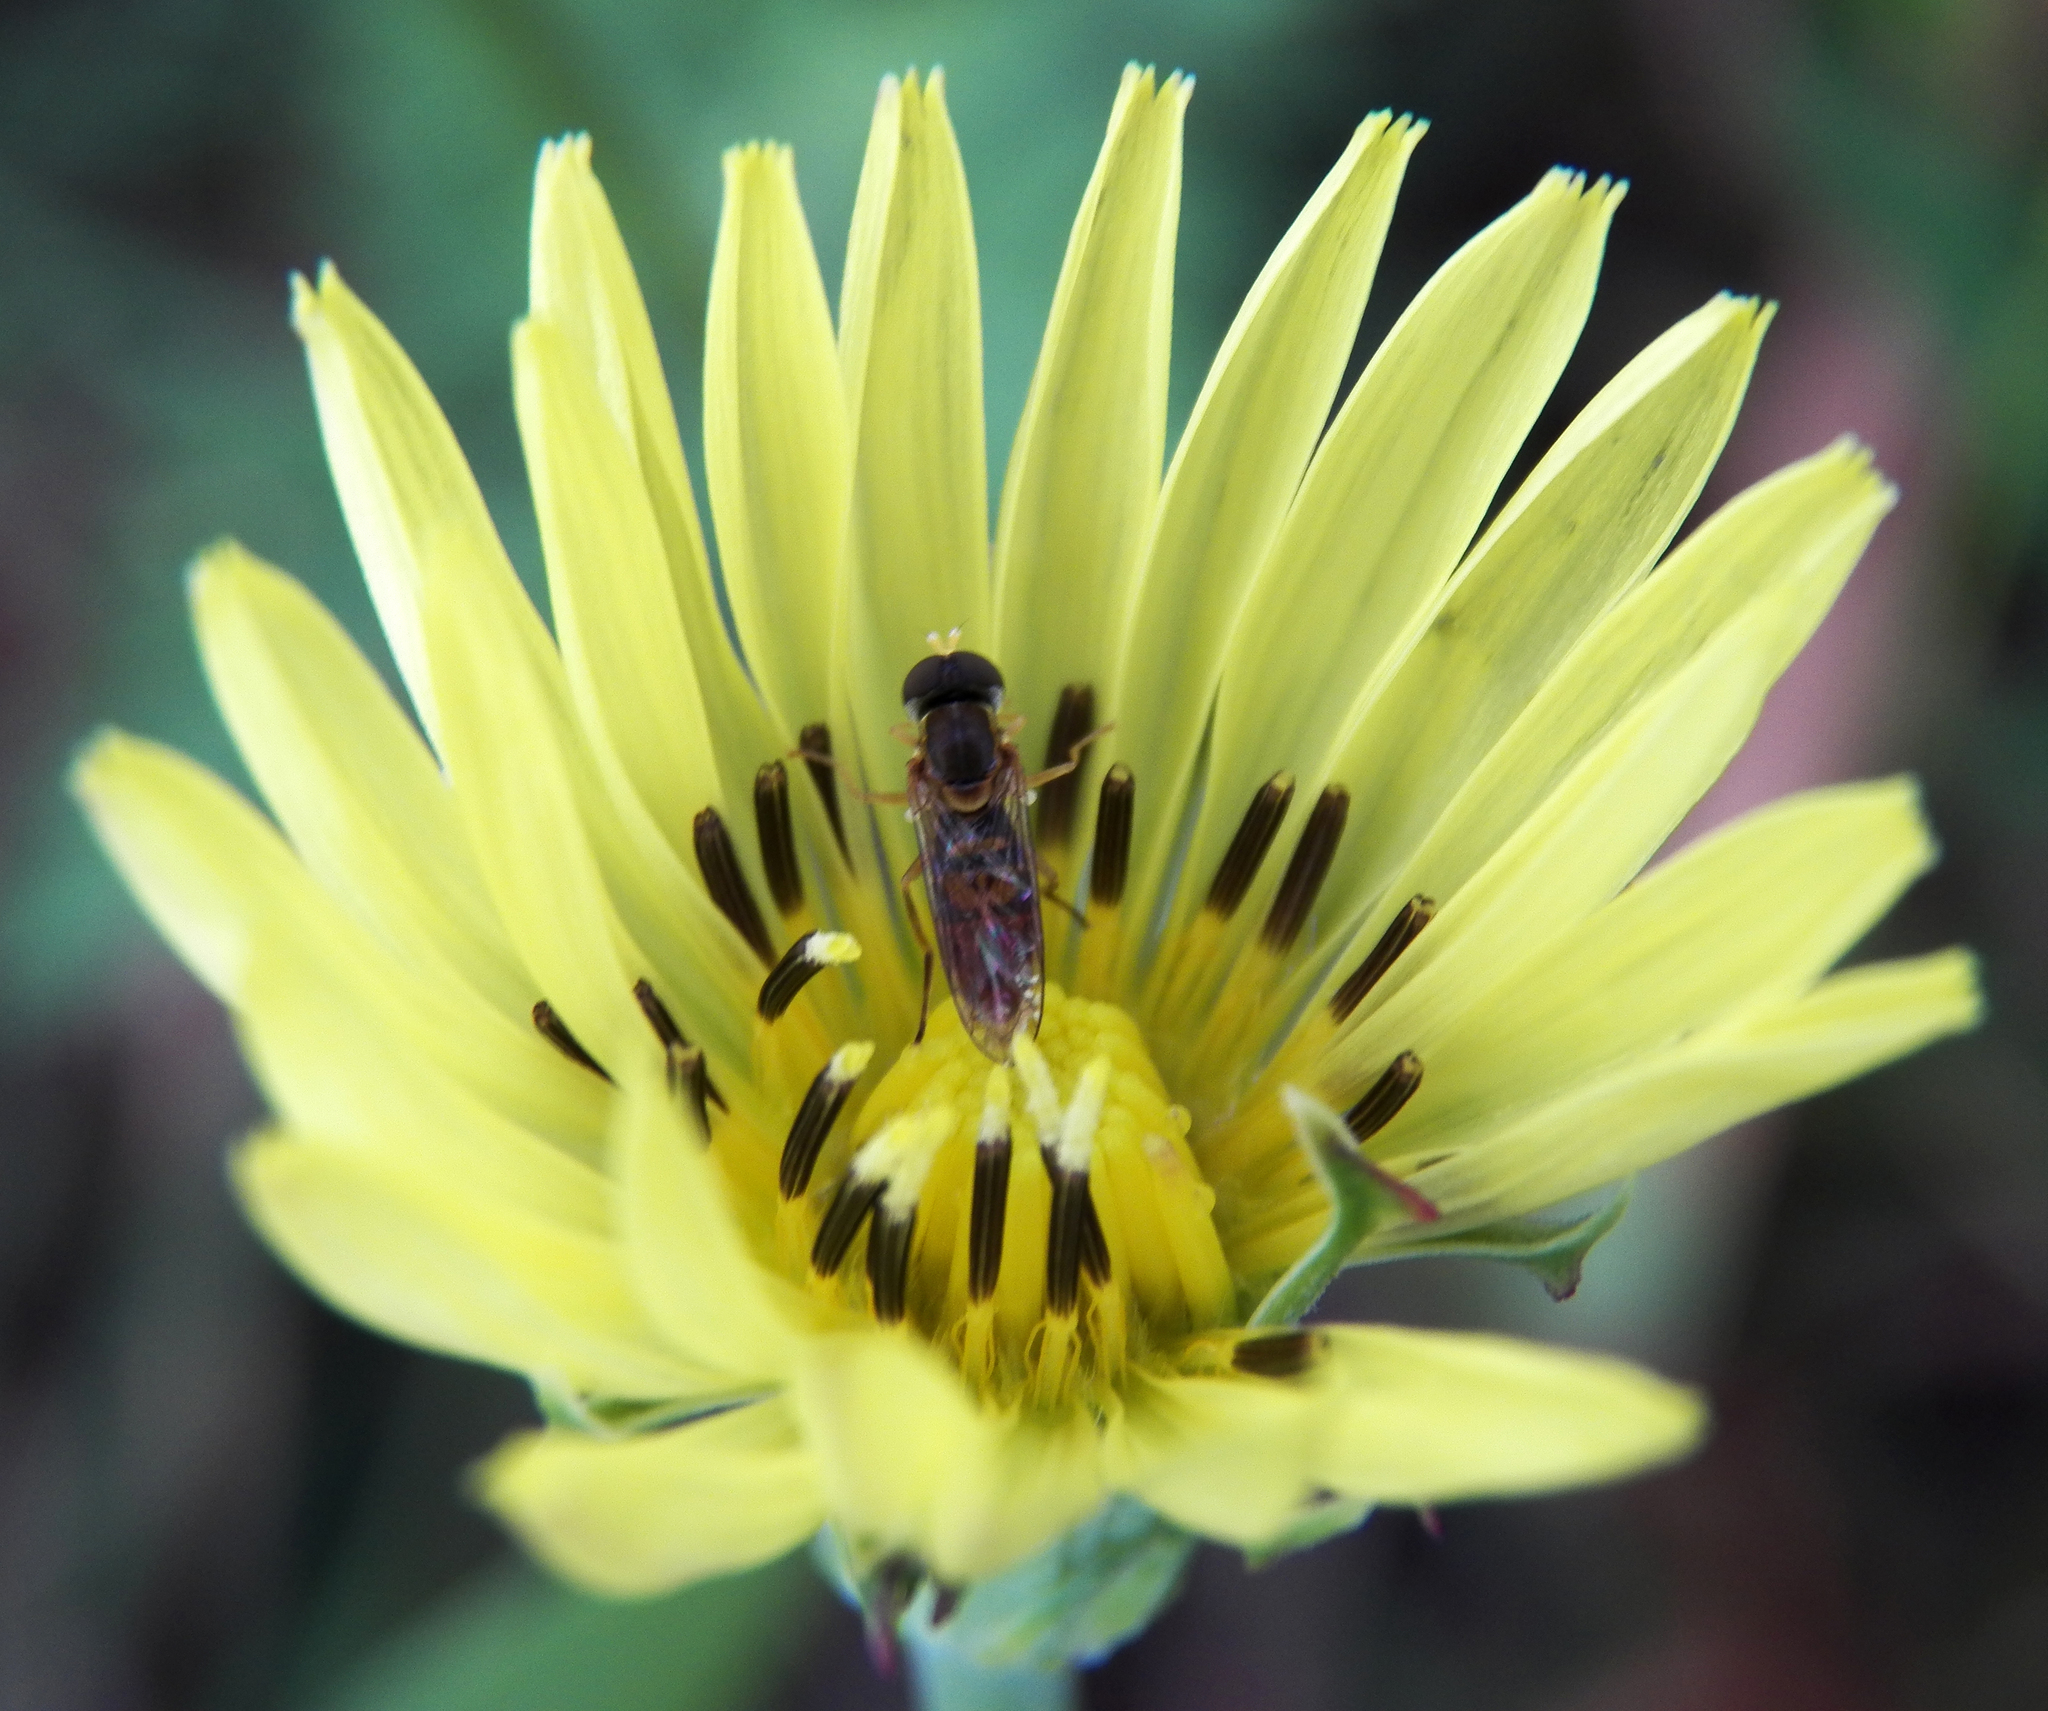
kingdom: Plantae
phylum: Tracheophyta
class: Magnoliopsida
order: Asterales
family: Asteraceae
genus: Pyrrhopappus
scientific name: Pyrrhopappus pauciflorus
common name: Texas false dandelion
